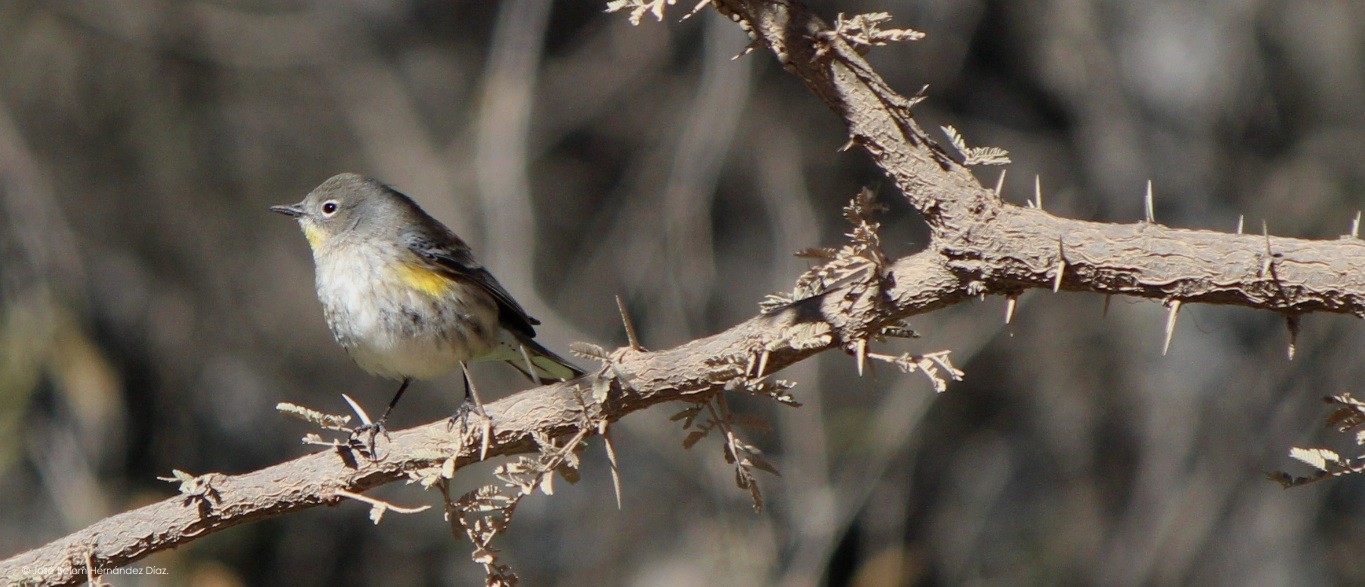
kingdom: Animalia
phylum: Chordata
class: Aves
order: Passeriformes
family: Parulidae
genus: Setophaga
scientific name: Setophaga auduboni
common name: Audubon's warbler
